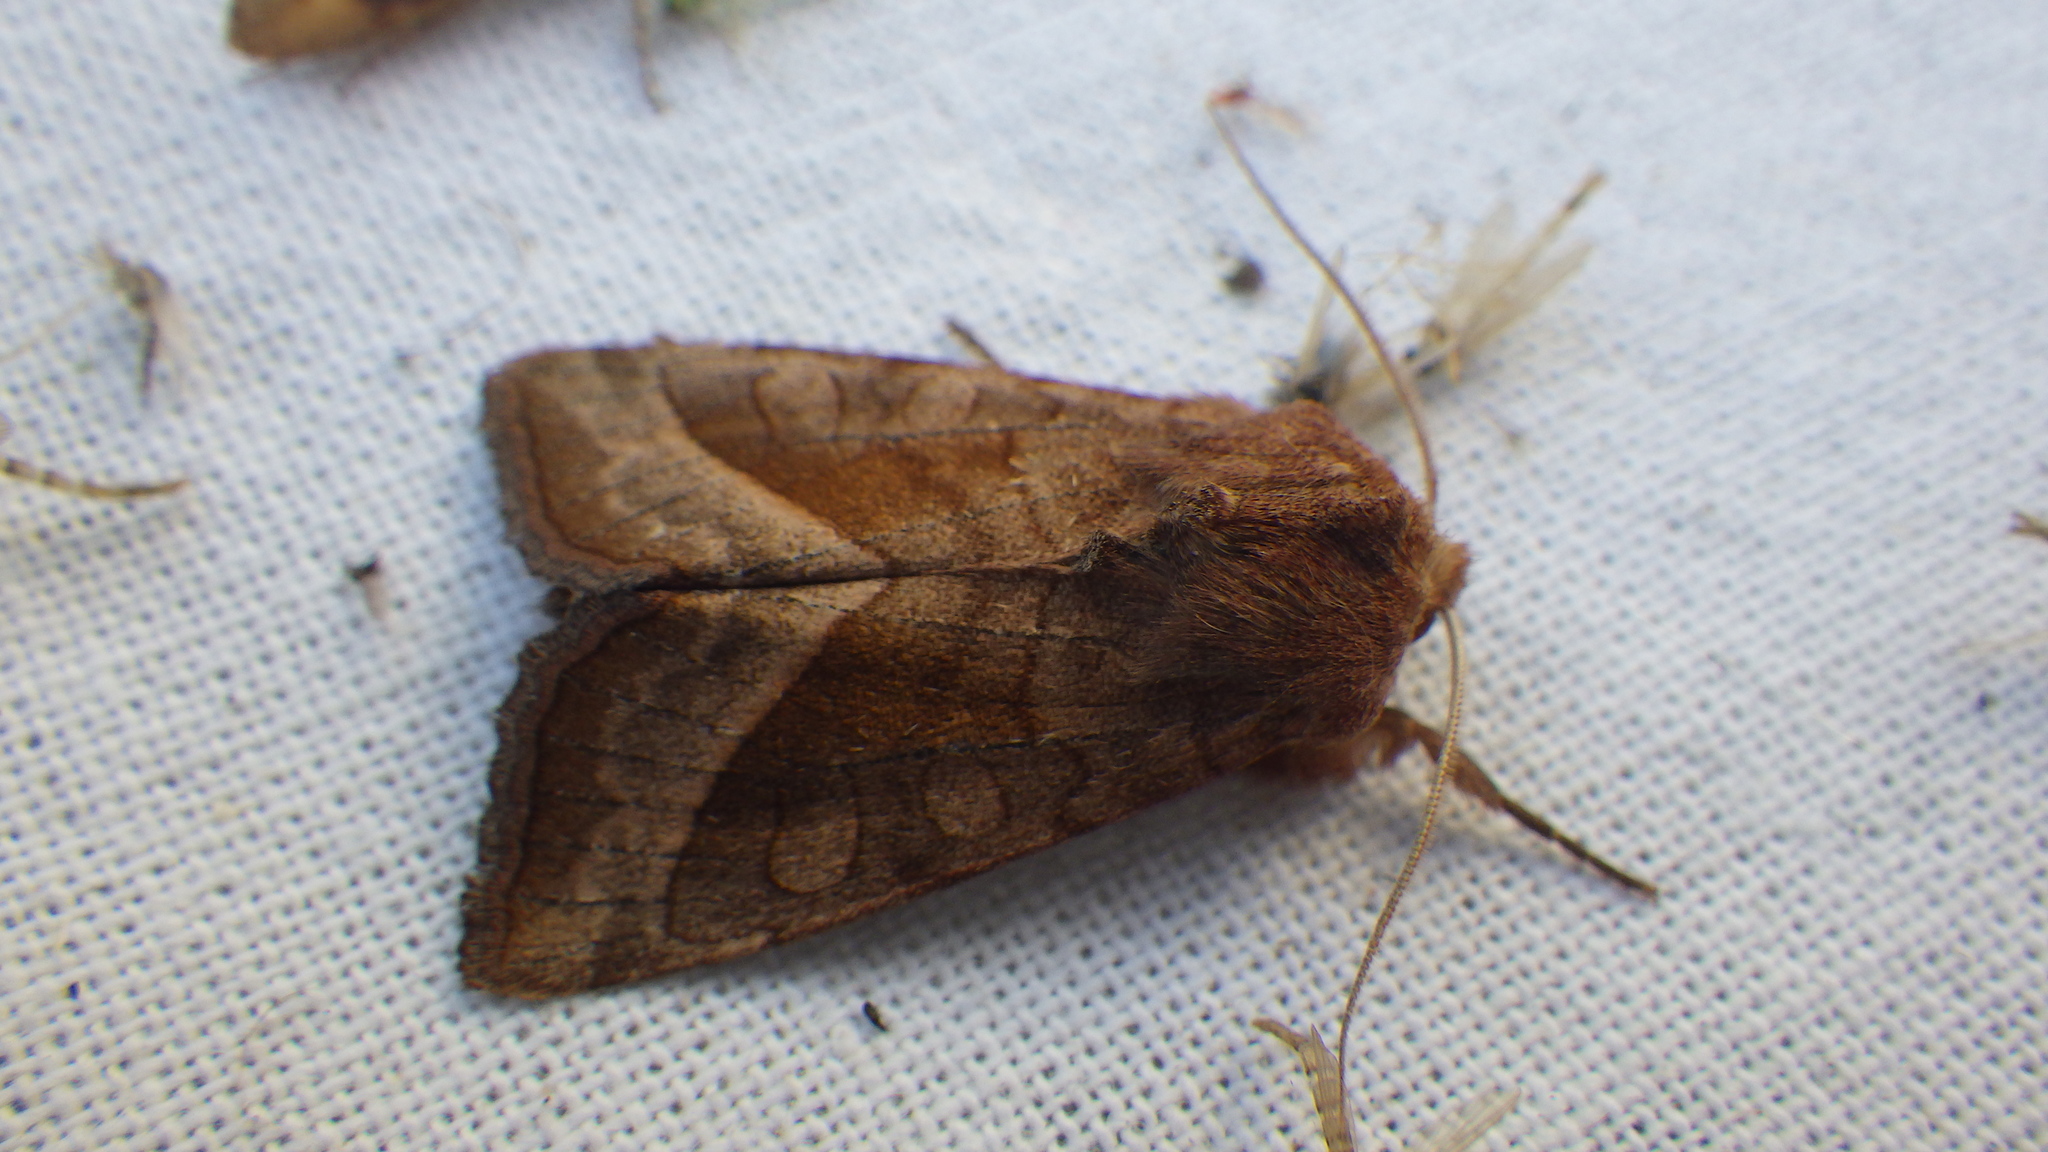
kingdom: Animalia
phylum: Arthropoda
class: Insecta
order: Lepidoptera
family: Noctuidae
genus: Hydraecia
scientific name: Hydraecia micacea
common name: Rosy rustic
